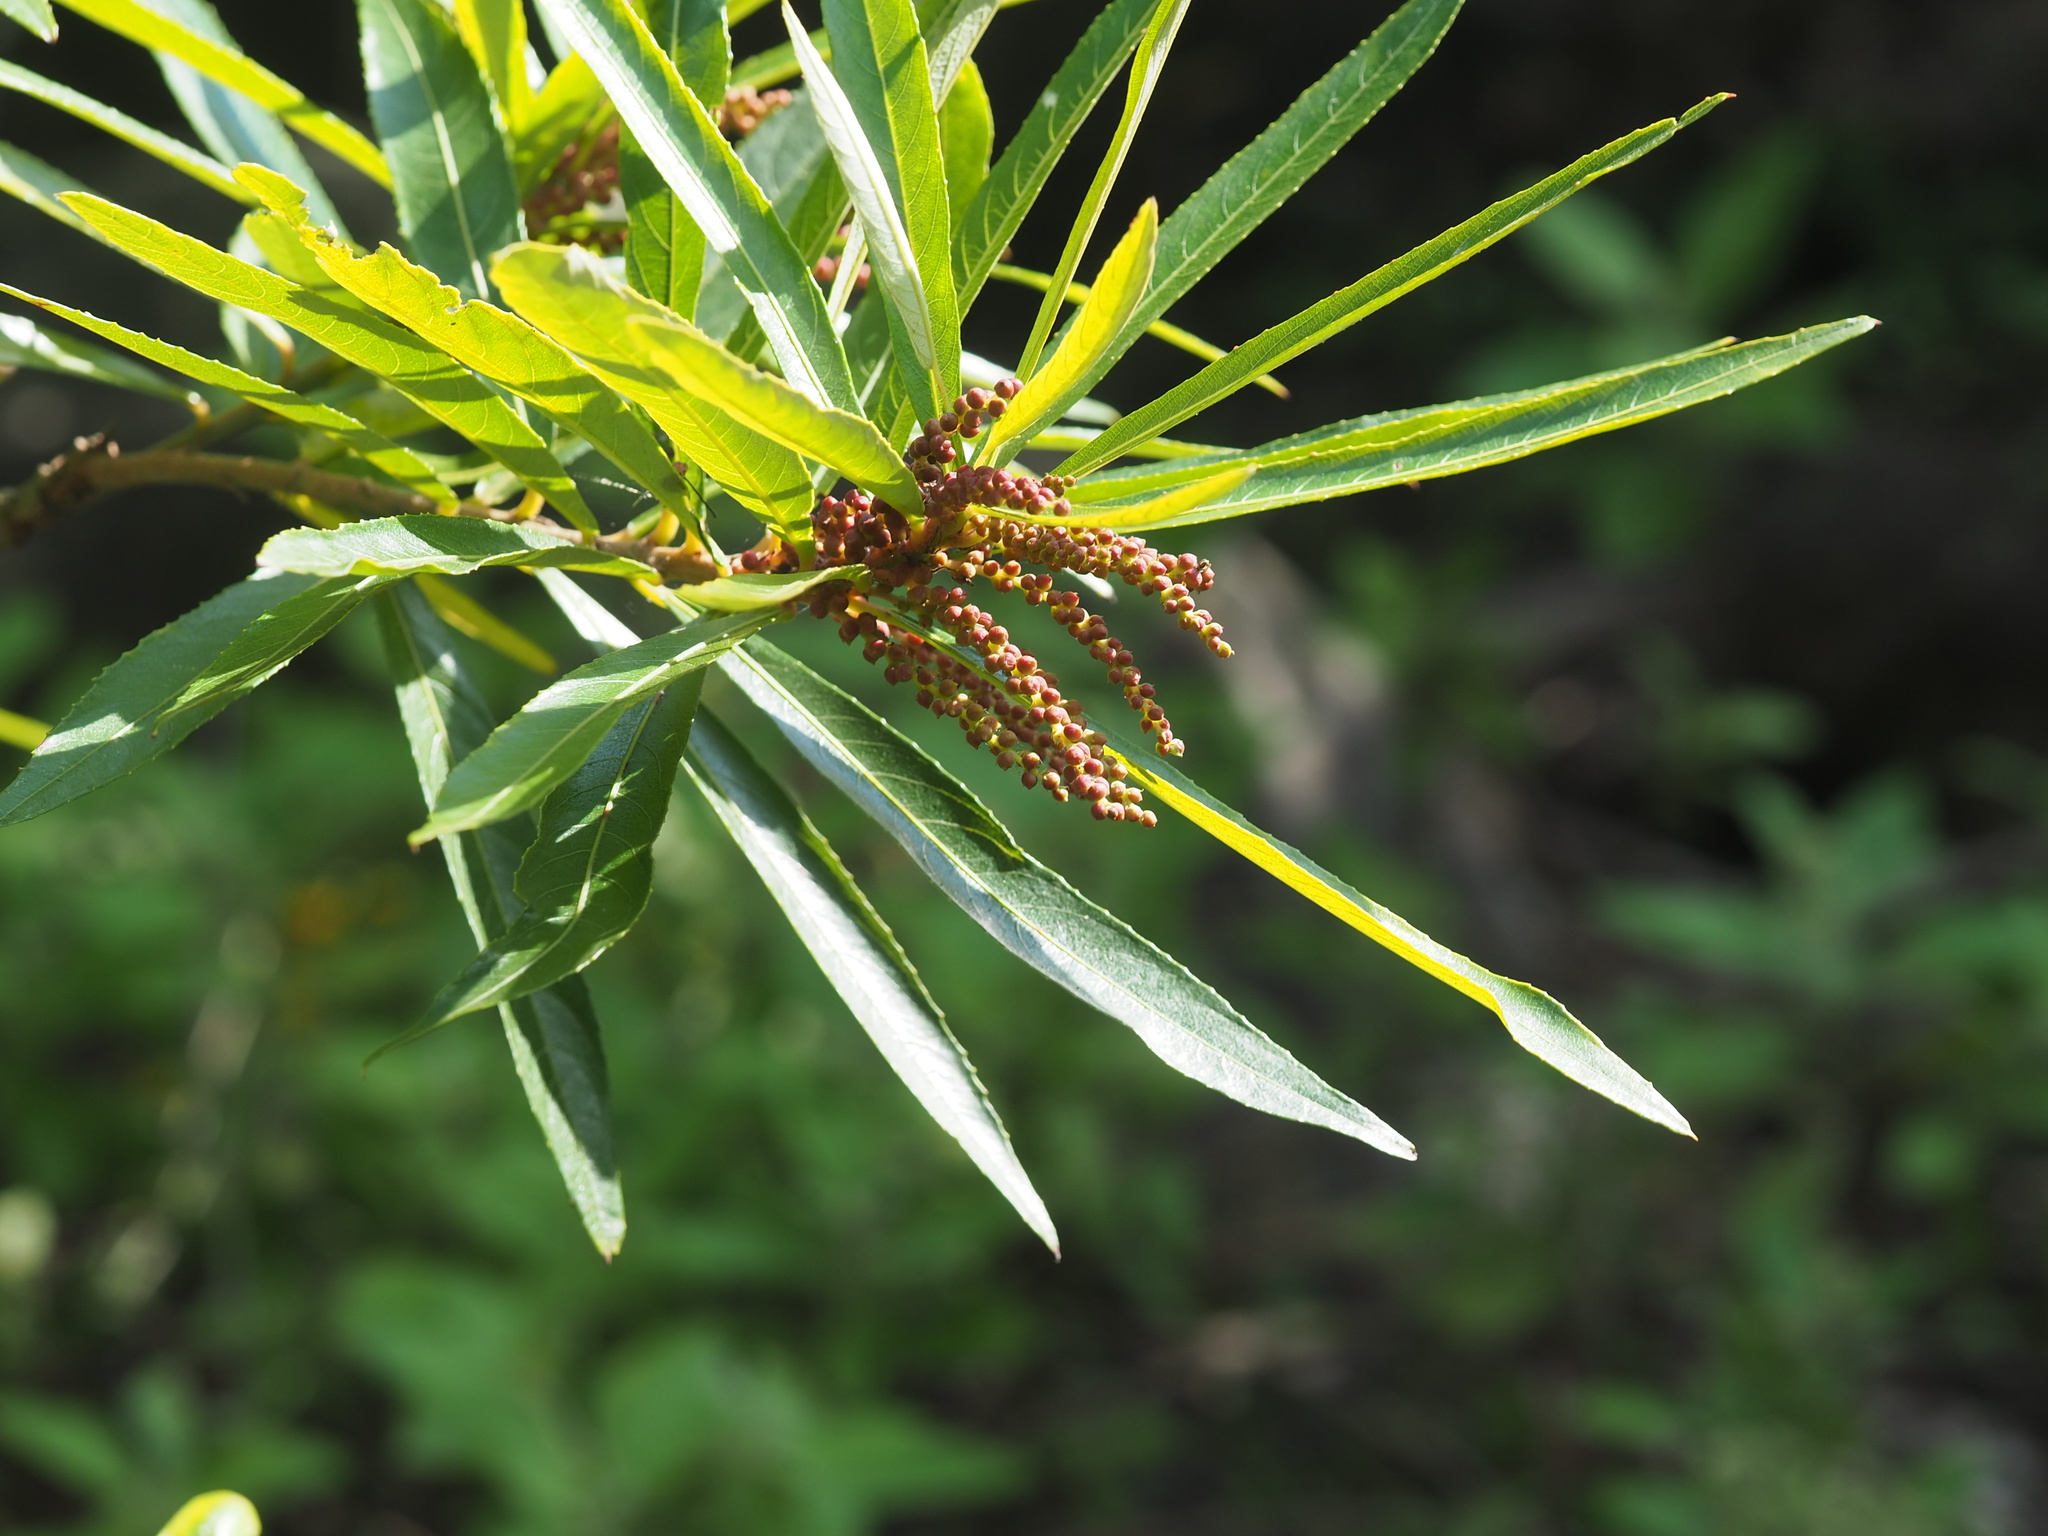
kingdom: Plantae
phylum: Tracheophyta
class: Magnoliopsida
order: Malpighiales
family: Euphorbiaceae
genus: Homonoia
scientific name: Homonoia riparia
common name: Willow-leaved water croton
